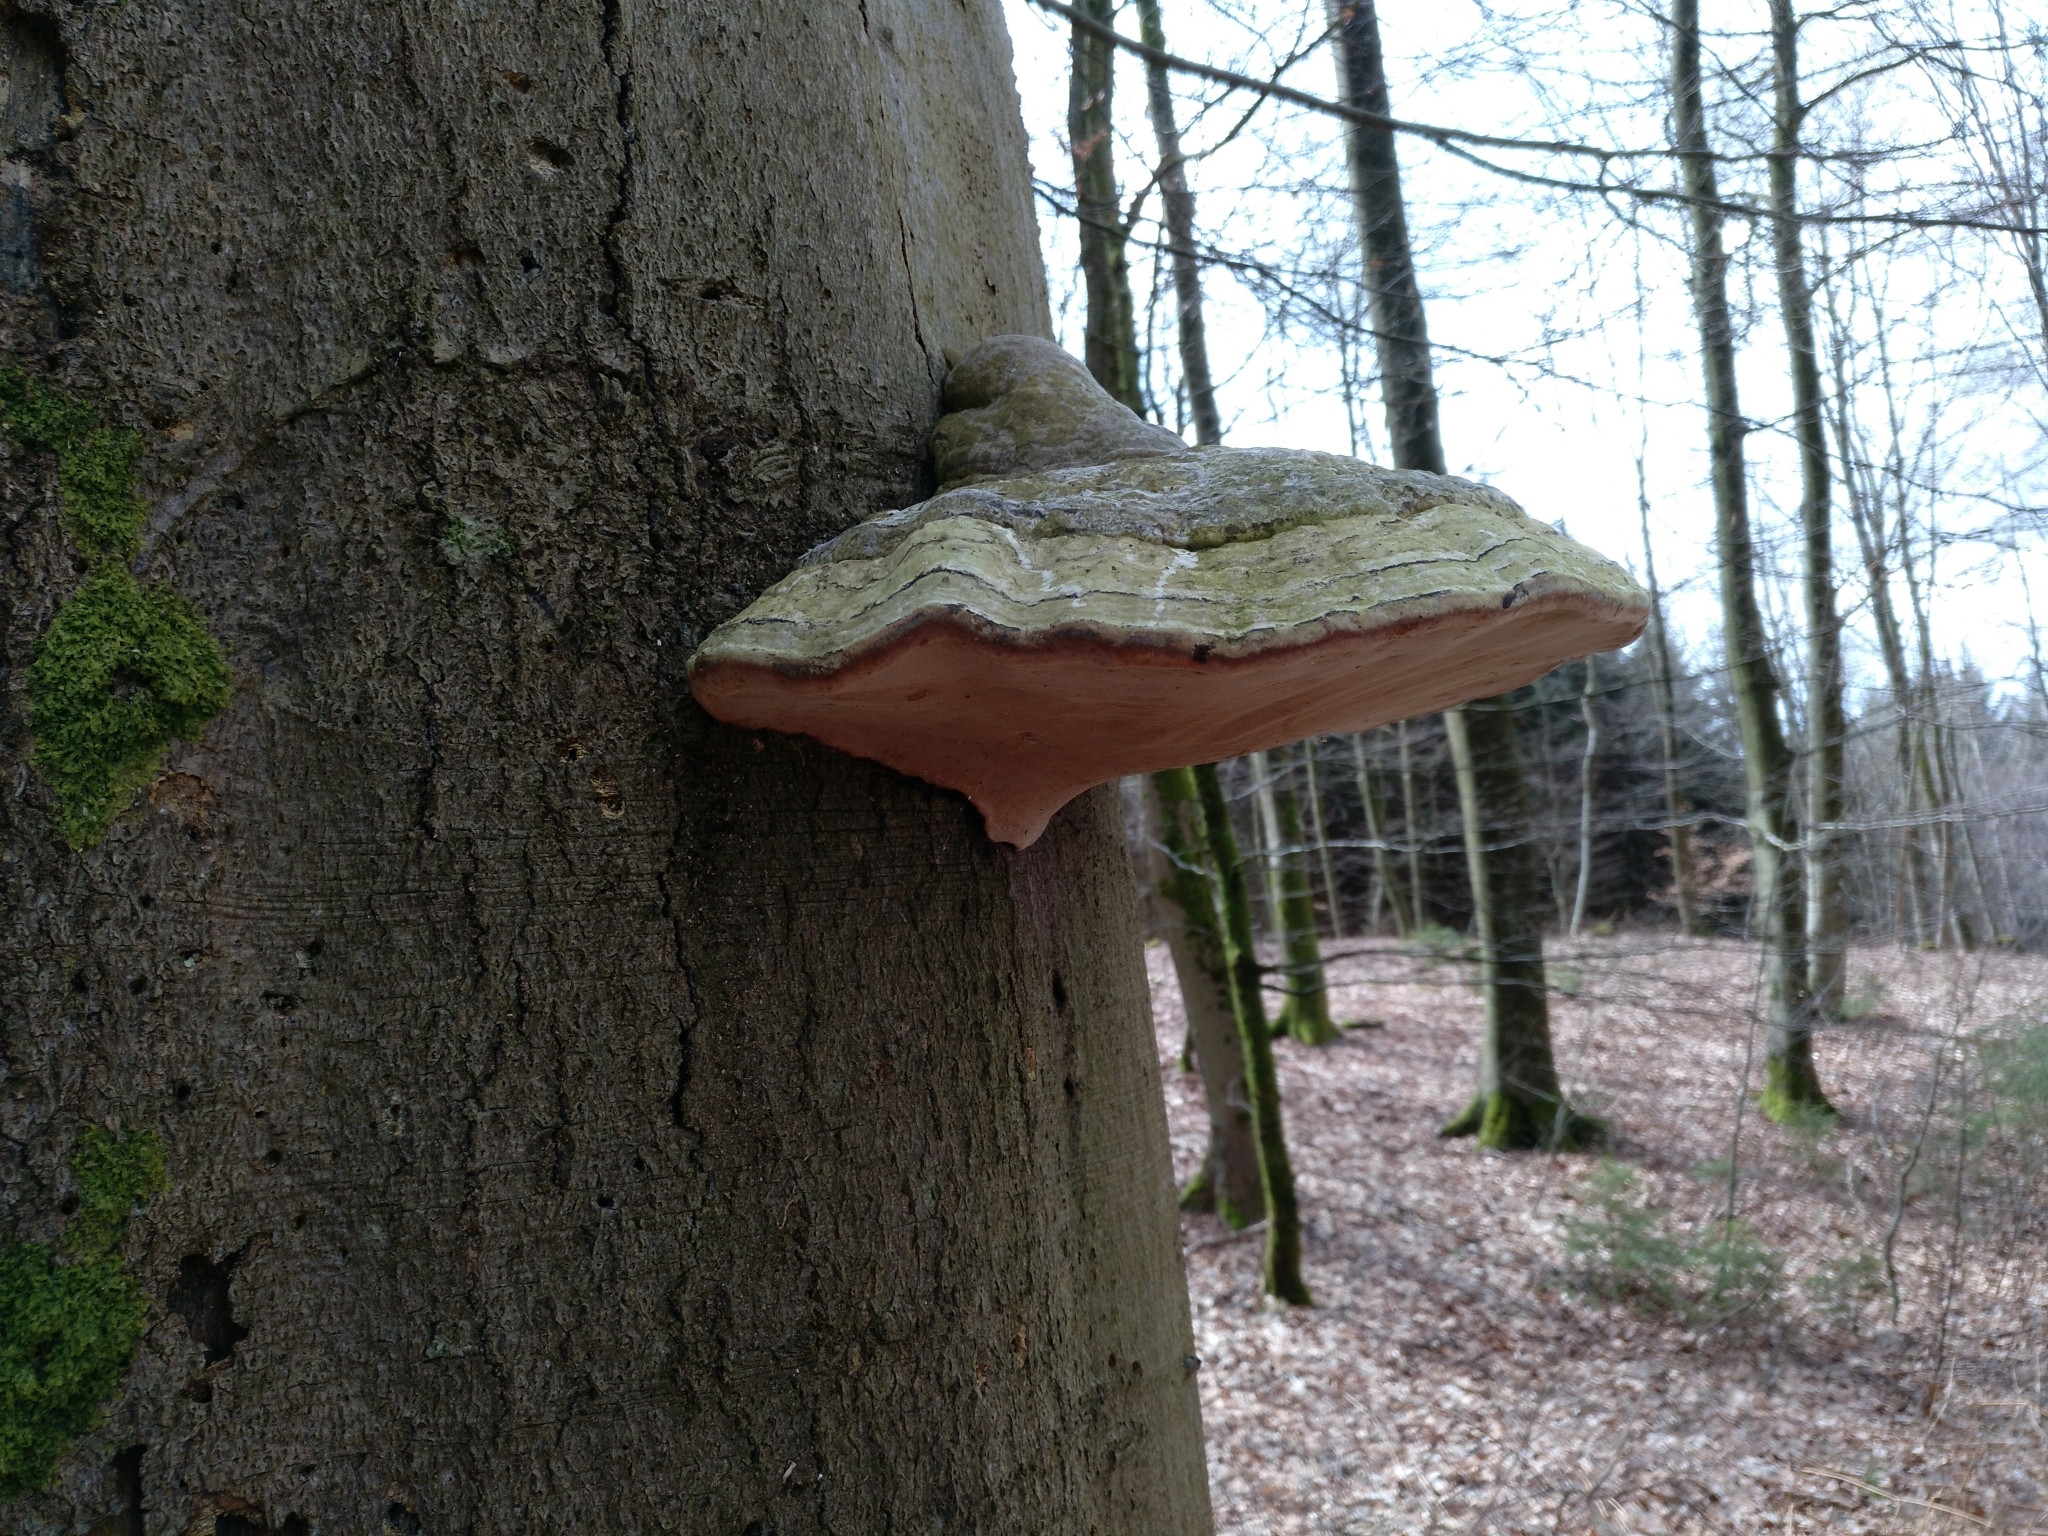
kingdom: Fungi
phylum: Basidiomycota
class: Agaricomycetes
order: Polyporales
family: Polyporaceae
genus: Fomes
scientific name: Fomes fomentarius
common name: Hoof fungus
